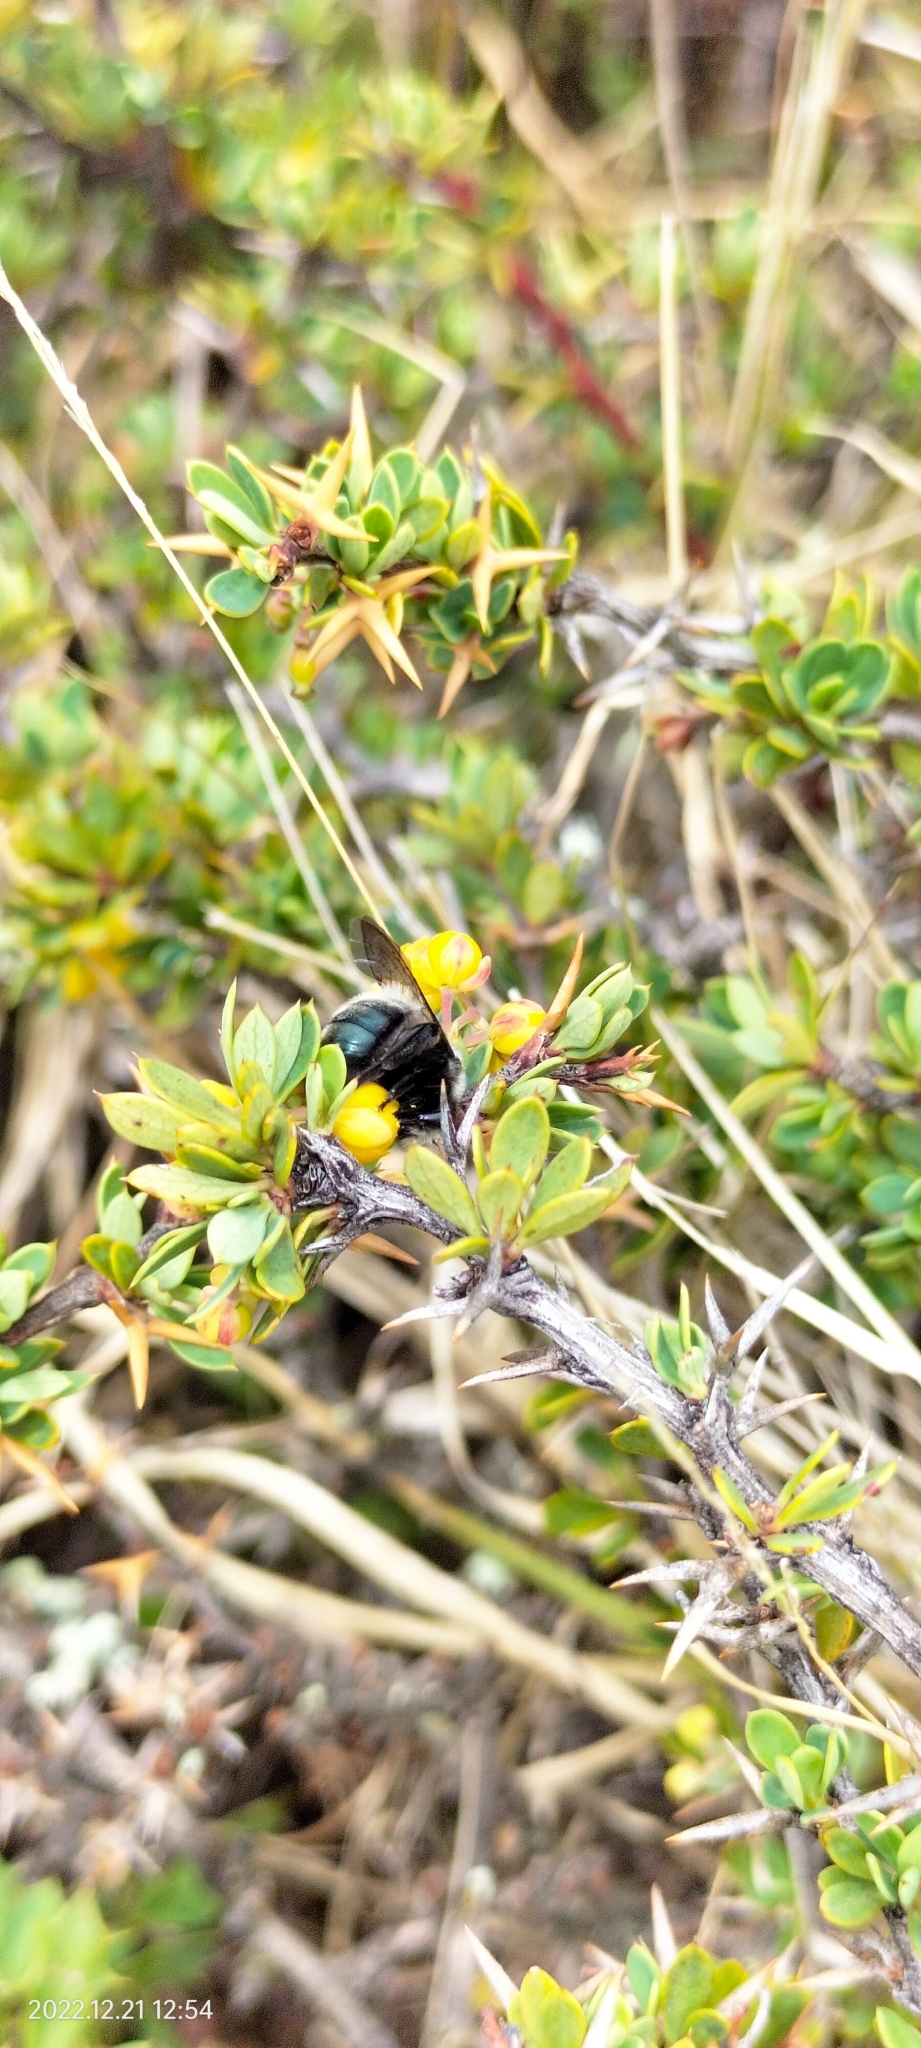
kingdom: Animalia
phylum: Arthropoda
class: Insecta
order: Hymenoptera
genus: Biglossa
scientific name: Biglossa
